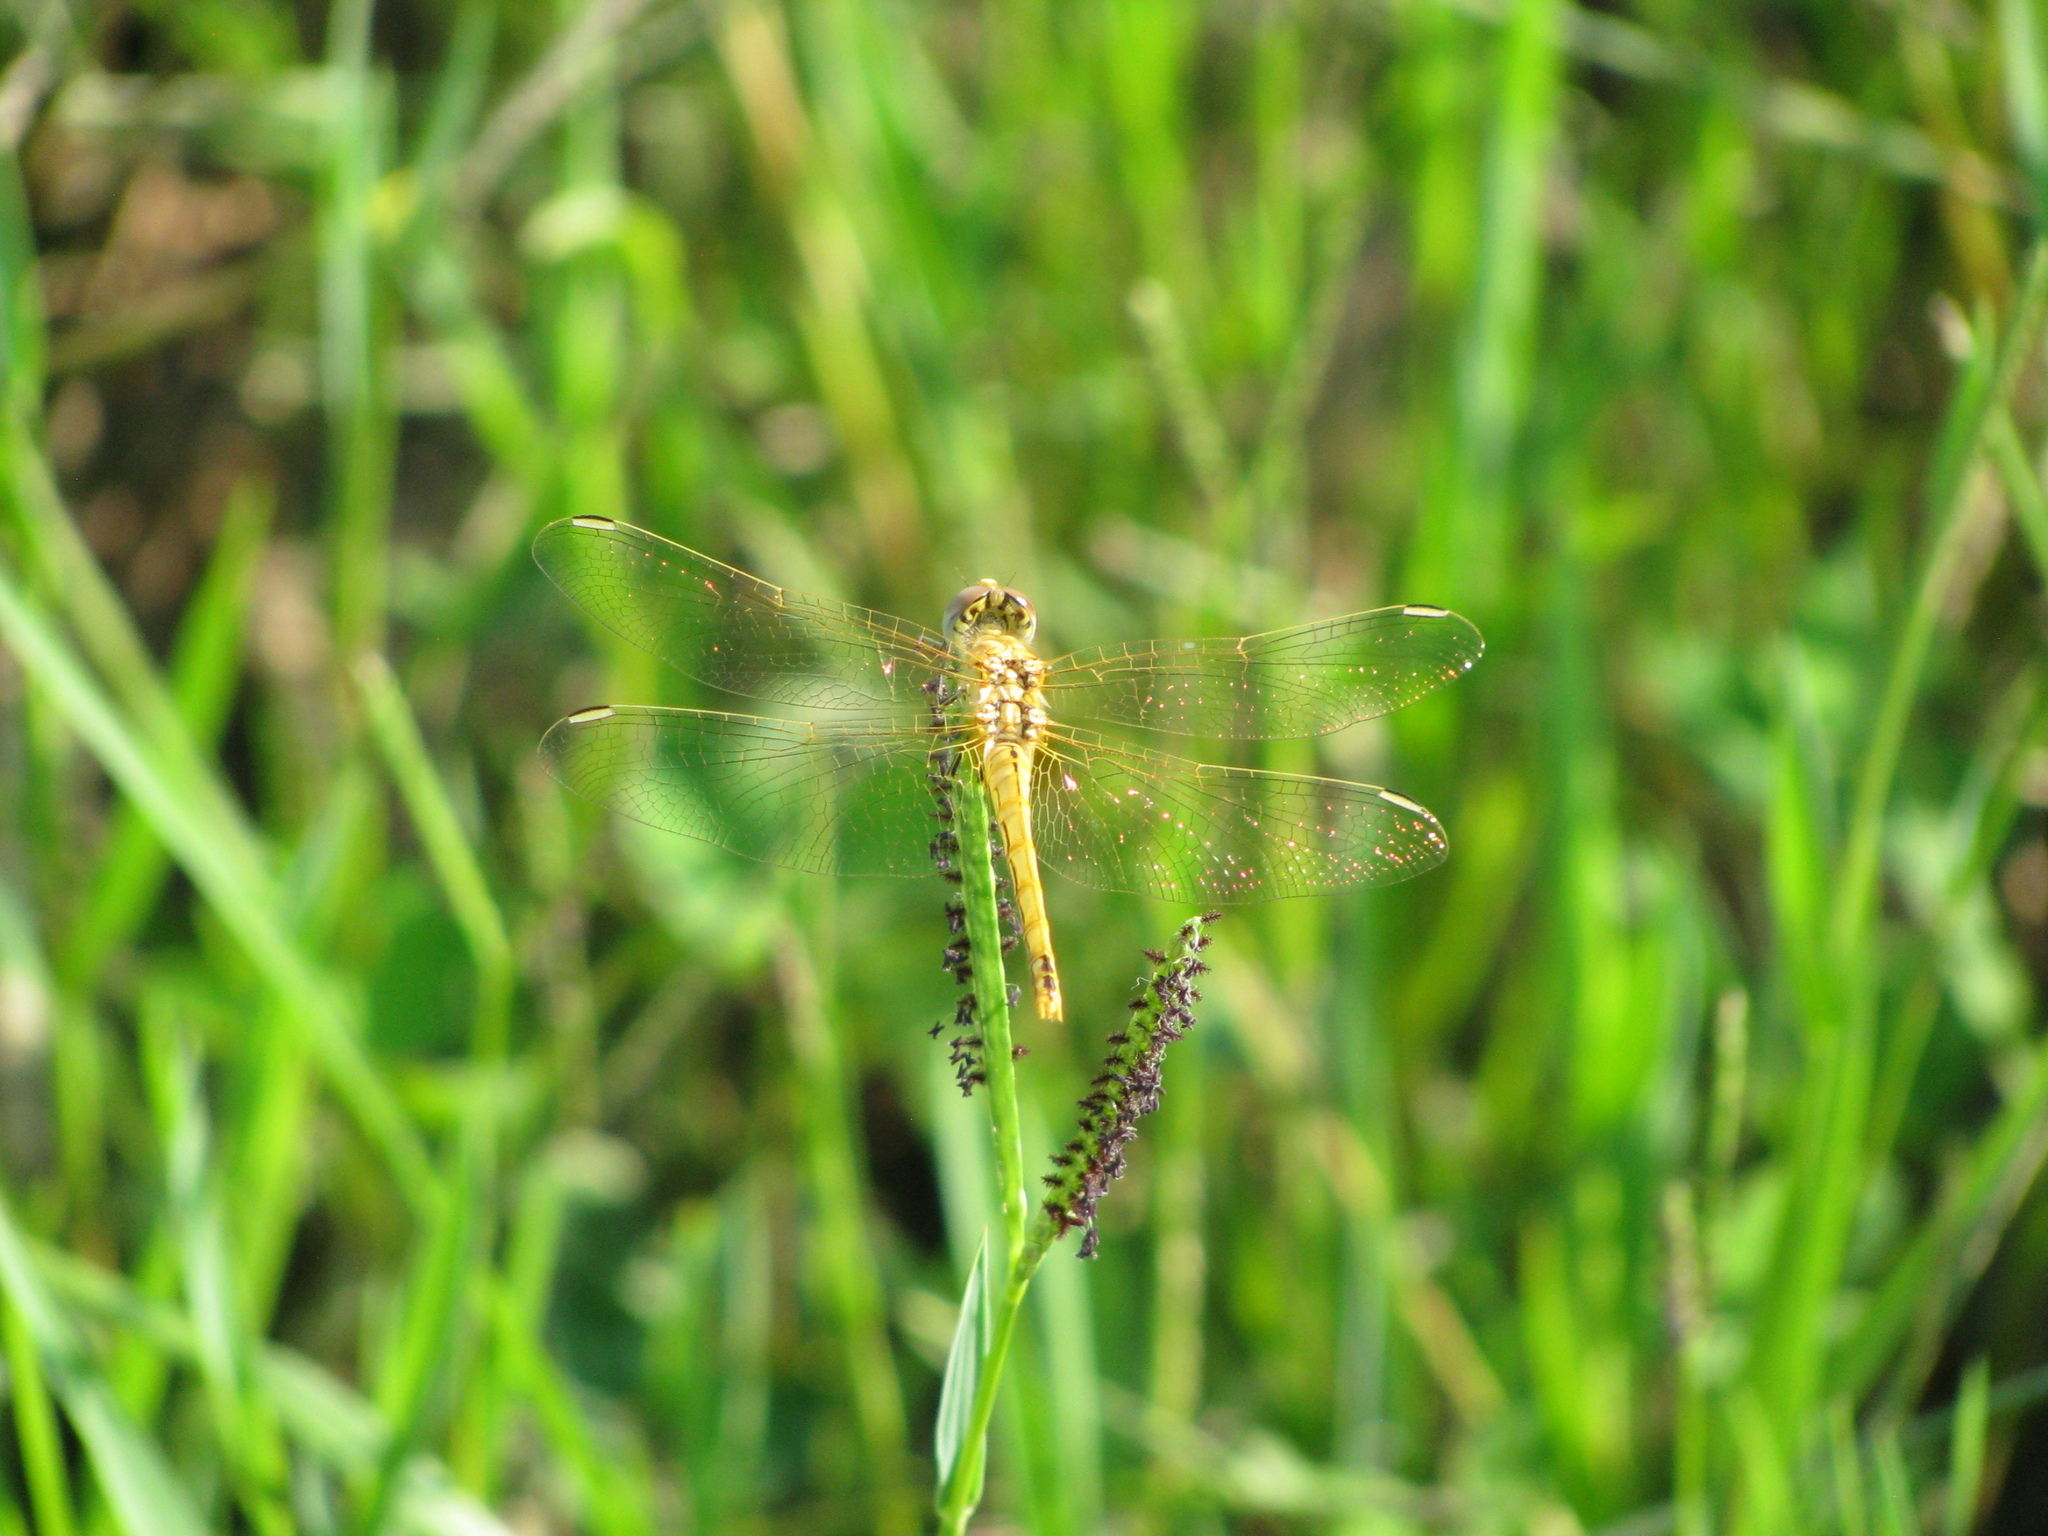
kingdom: Animalia
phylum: Arthropoda
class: Insecta
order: Odonata
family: Libellulidae
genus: Sympetrum
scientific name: Sympetrum fonscolombii
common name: Red-veined darter
